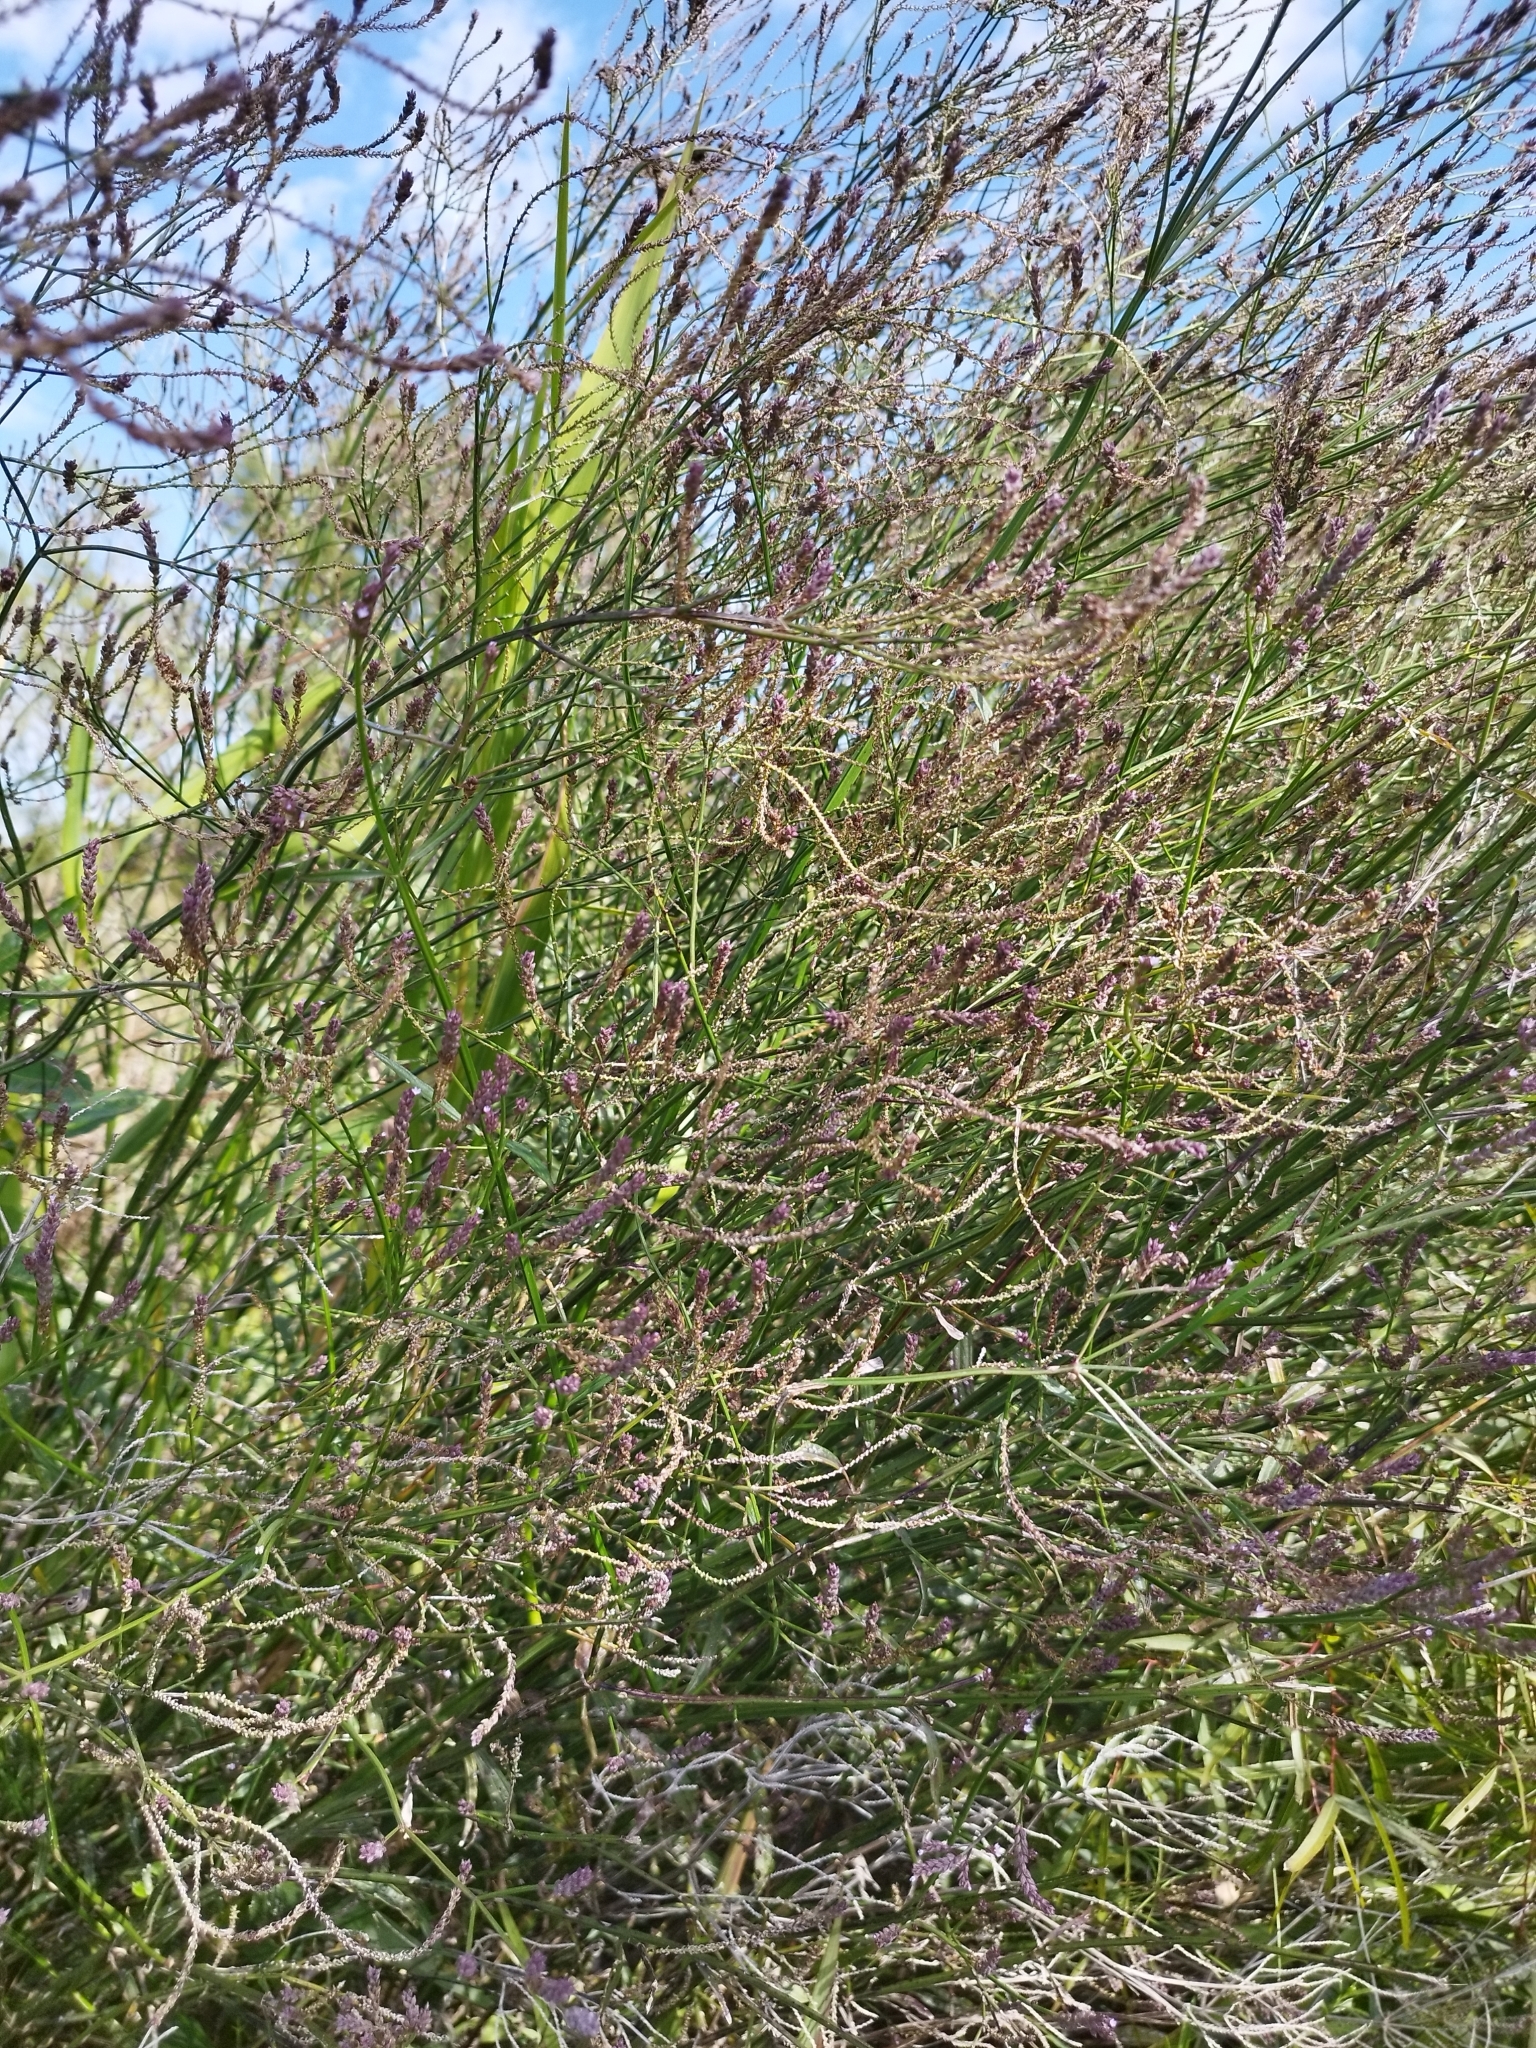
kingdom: Plantae
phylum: Tracheophyta
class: Magnoliopsida
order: Lamiales
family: Verbenaceae
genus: Verbena
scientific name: Verbena litoralis
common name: Seashore vervain
